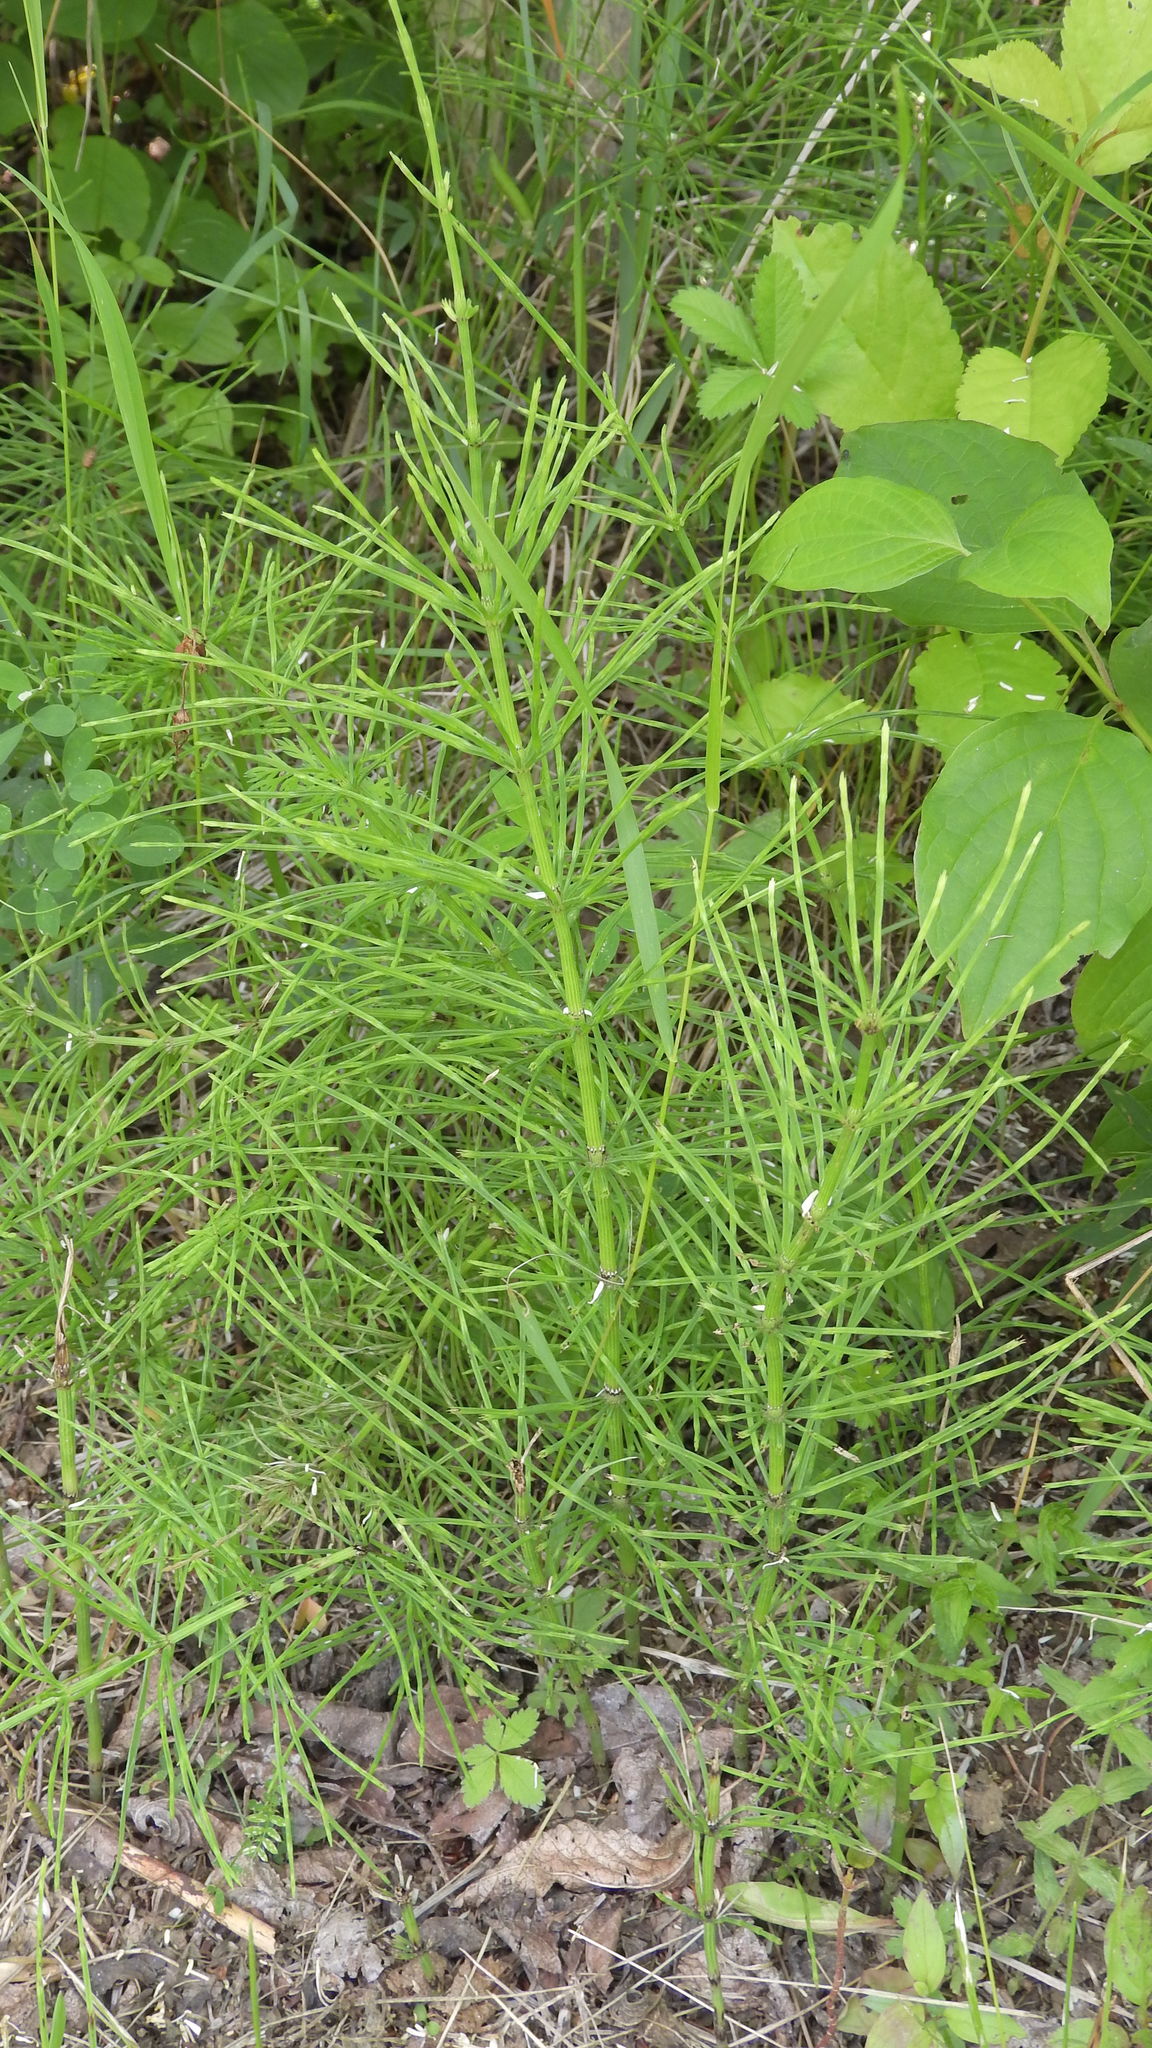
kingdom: Plantae
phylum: Tracheophyta
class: Polypodiopsida
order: Equisetales
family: Equisetaceae
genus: Equisetum
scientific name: Equisetum arvense
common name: Field horsetail
